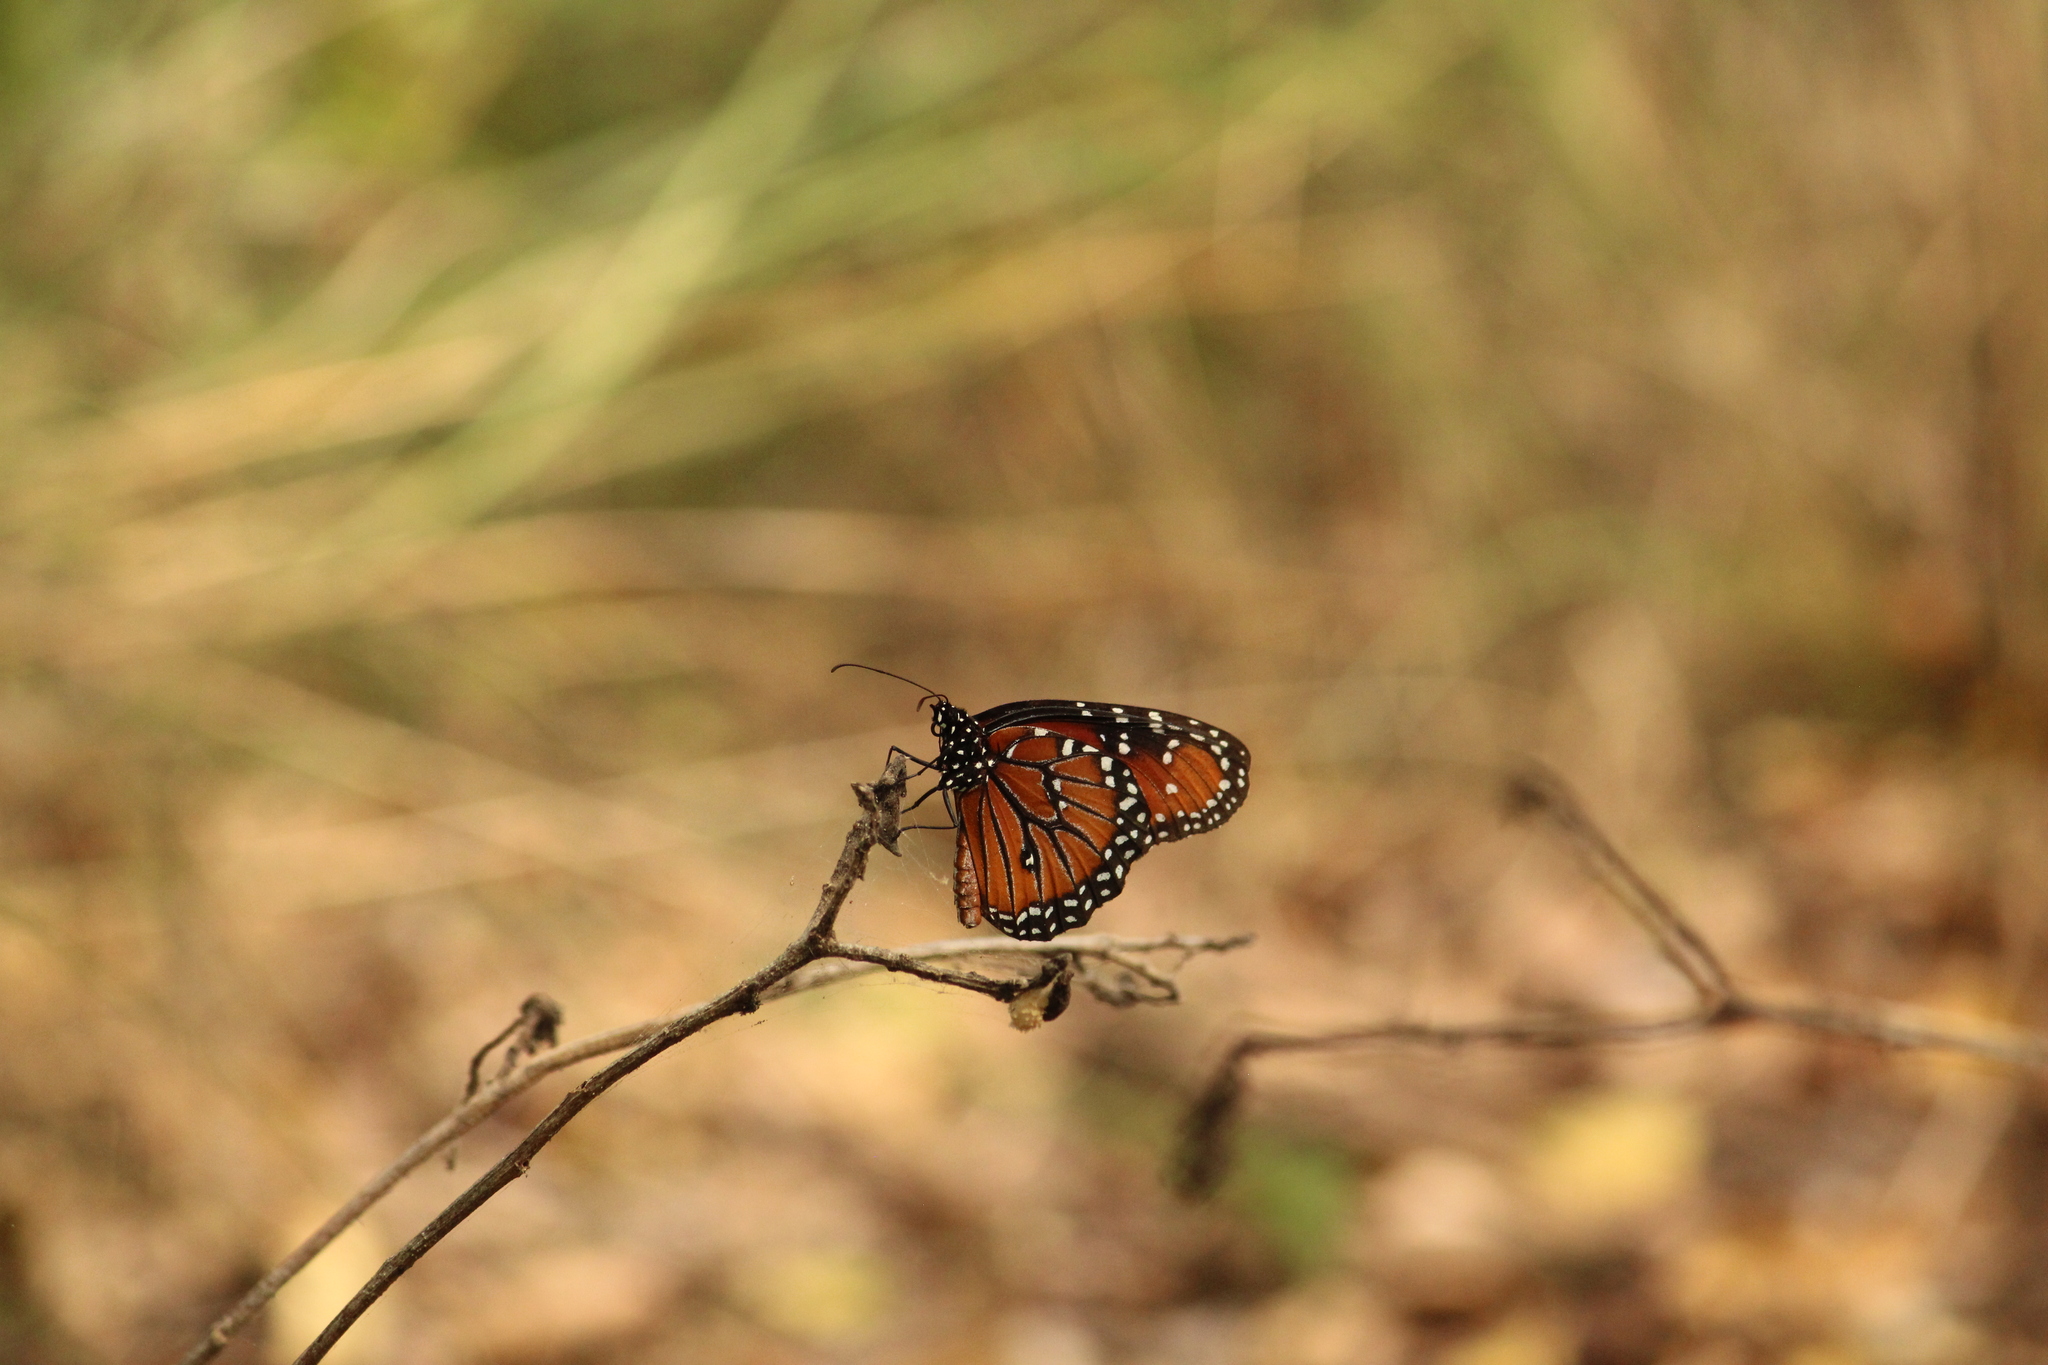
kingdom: Animalia
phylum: Arthropoda
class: Insecta
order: Lepidoptera
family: Nymphalidae
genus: Danaus
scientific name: Danaus gilippus
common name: Queen
